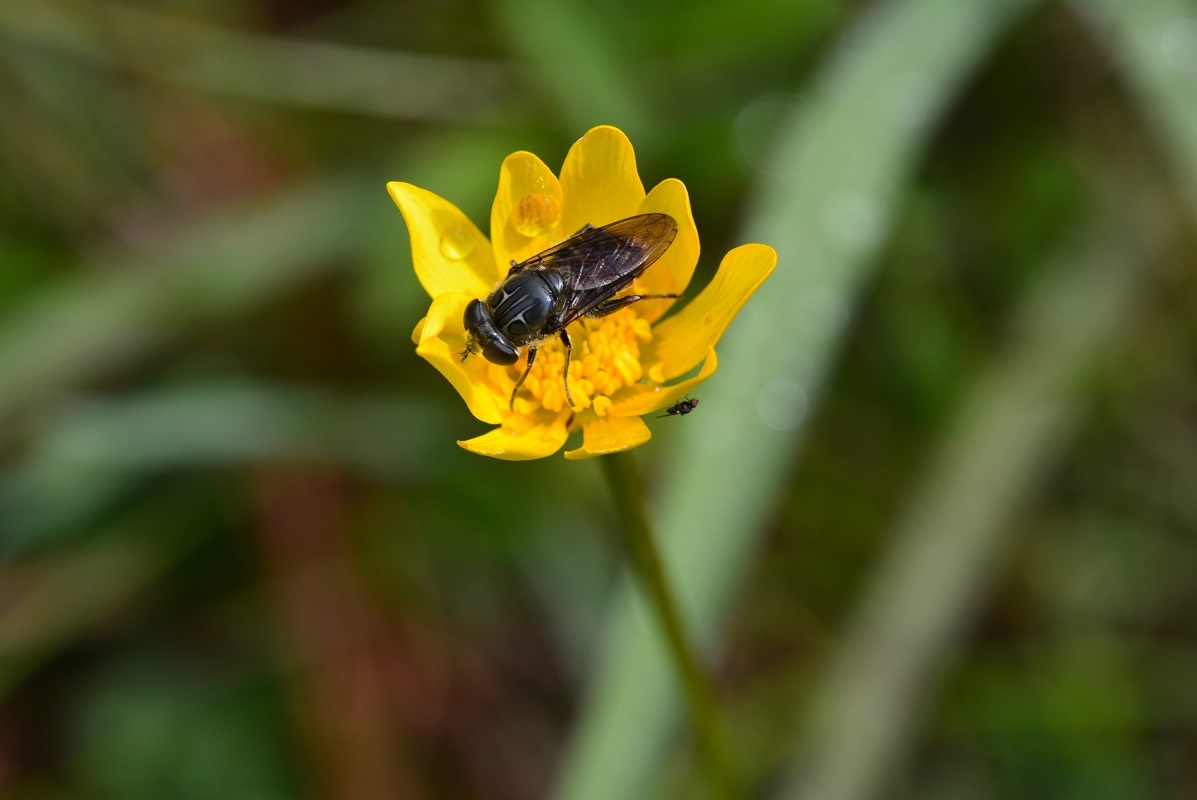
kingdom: Animalia
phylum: Arthropoda
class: Insecta
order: Diptera
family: Syrphidae
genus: Asemosyrphus
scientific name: Asemosyrphus
